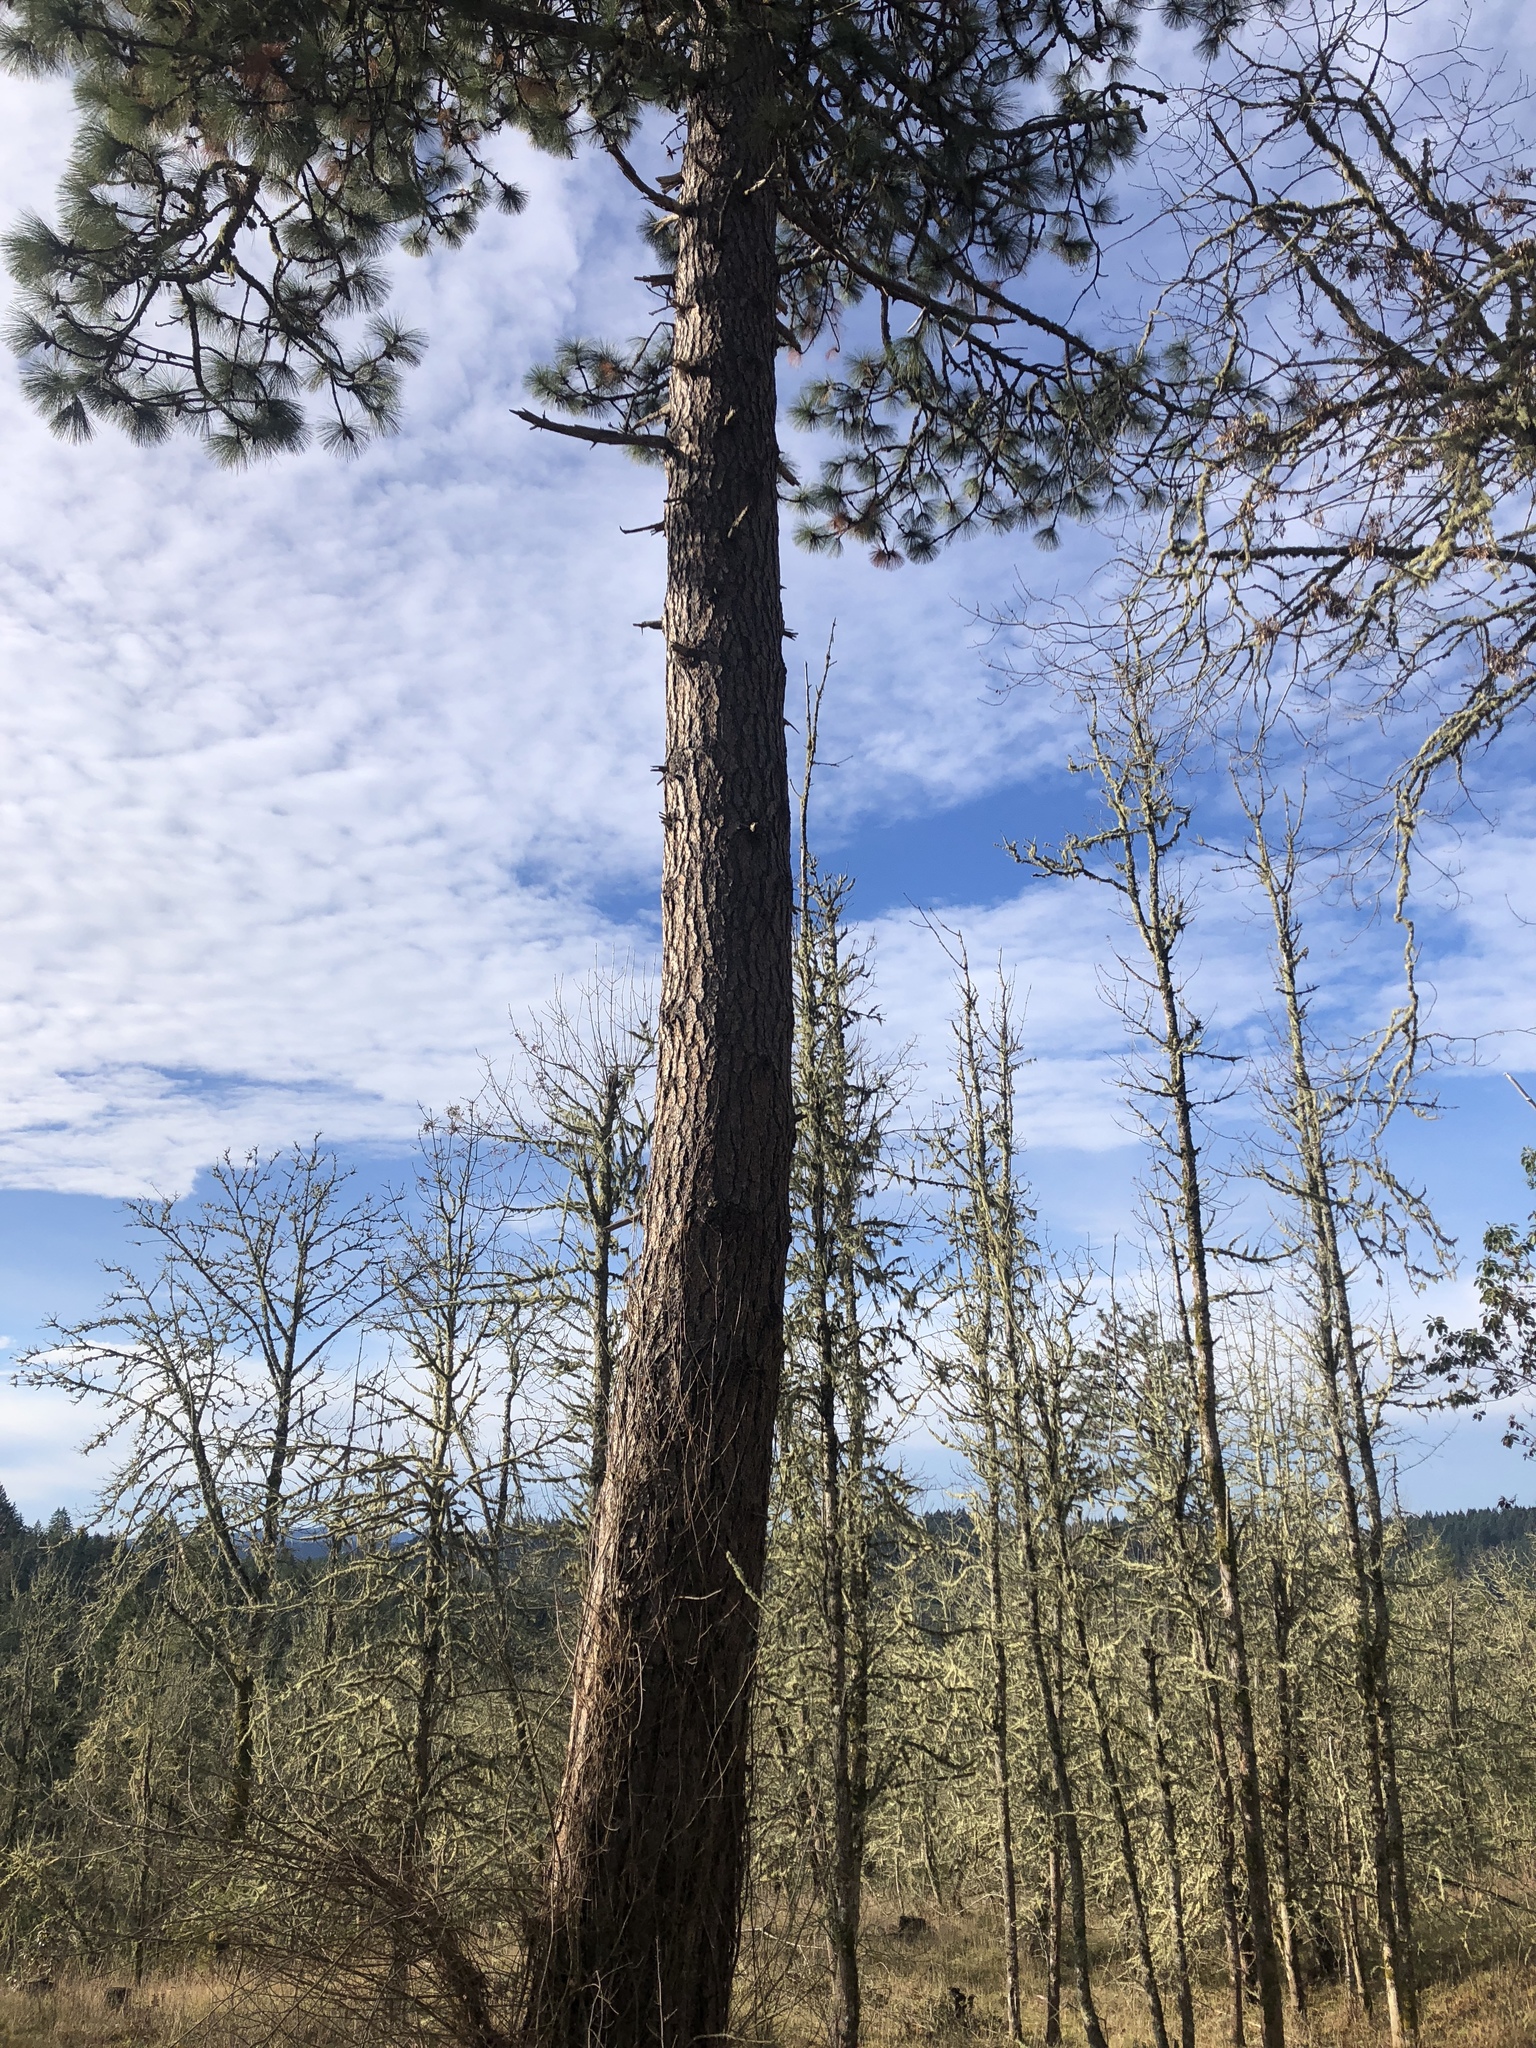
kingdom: Plantae
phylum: Tracheophyta
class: Pinopsida
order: Pinales
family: Pinaceae
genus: Pinus
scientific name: Pinus ponderosa
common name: Western yellow-pine
